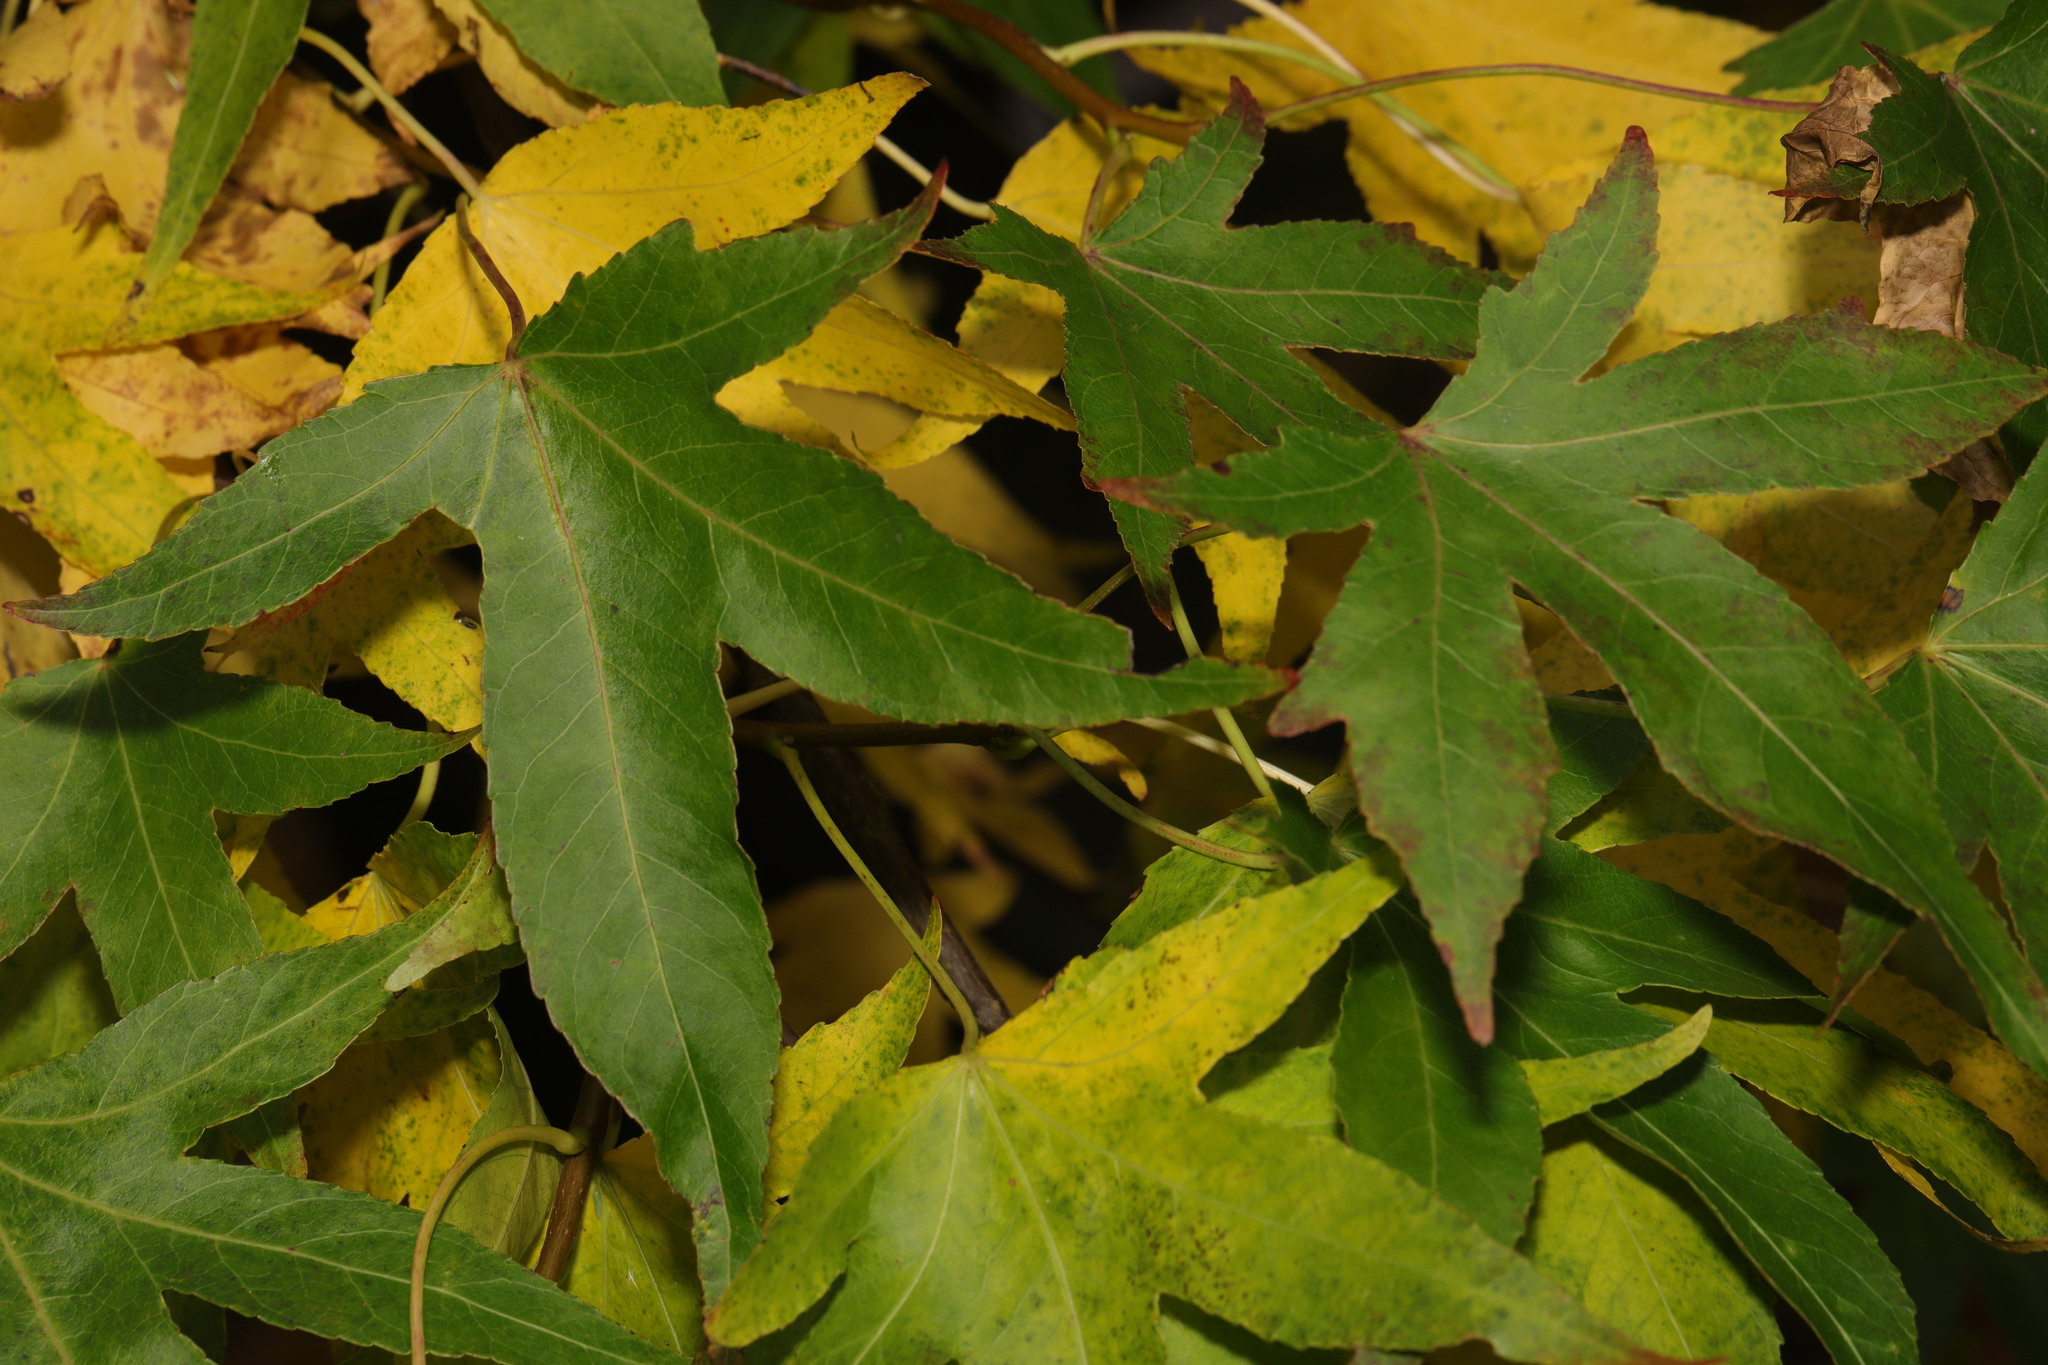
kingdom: Plantae
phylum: Tracheophyta
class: Magnoliopsida
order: Saxifragales
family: Altingiaceae
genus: Liquidambar
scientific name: Liquidambar styraciflua
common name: Sweet gum
